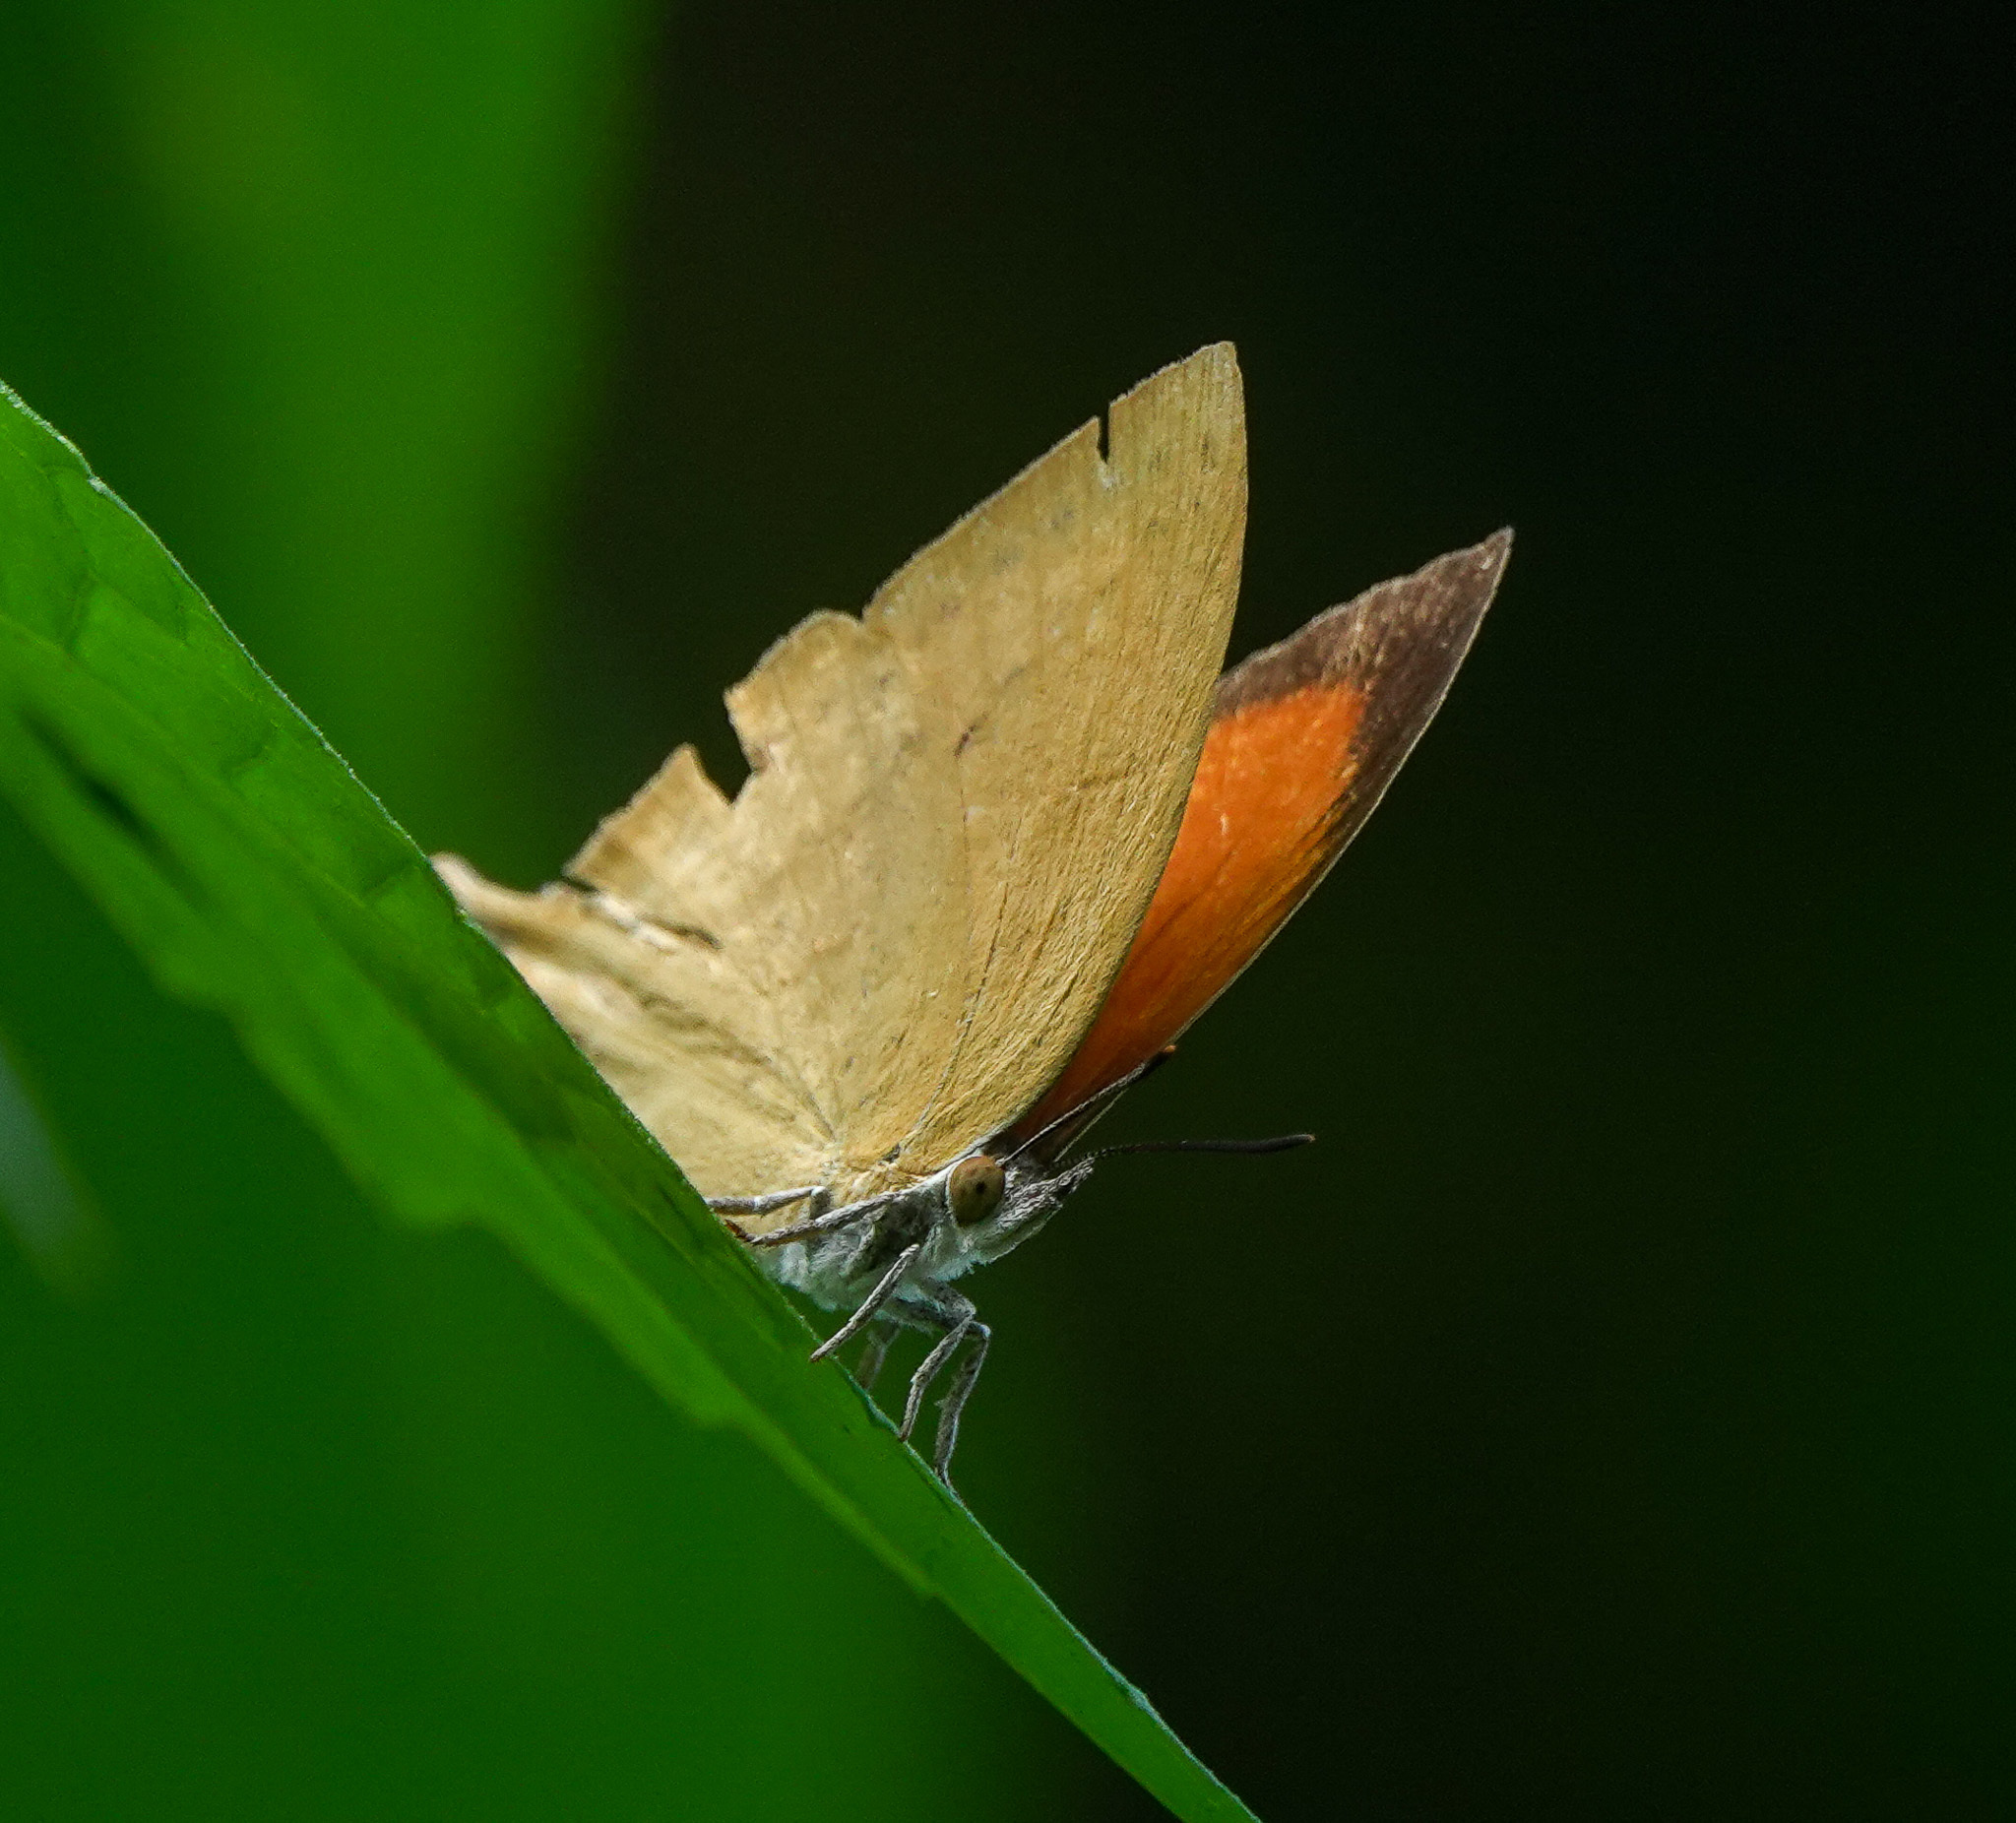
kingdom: Animalia
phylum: Arthropoda
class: Insecta
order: Lepidoptera
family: Lycaenidae
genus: Loxura
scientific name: Loxura atymnus
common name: Common yamfly
